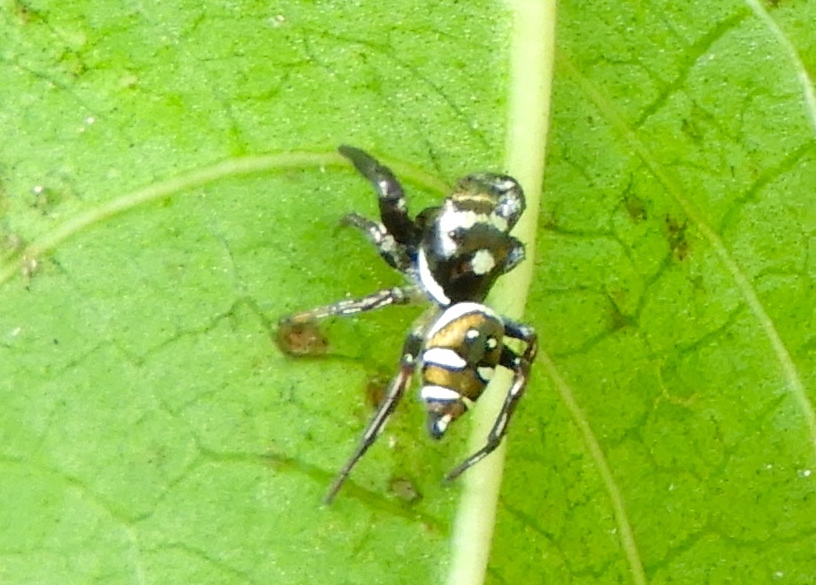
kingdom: Animalia
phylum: Arthropoda
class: Arachnida
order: Araneae
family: Salticidae
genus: Sassacus
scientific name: Sassacus
